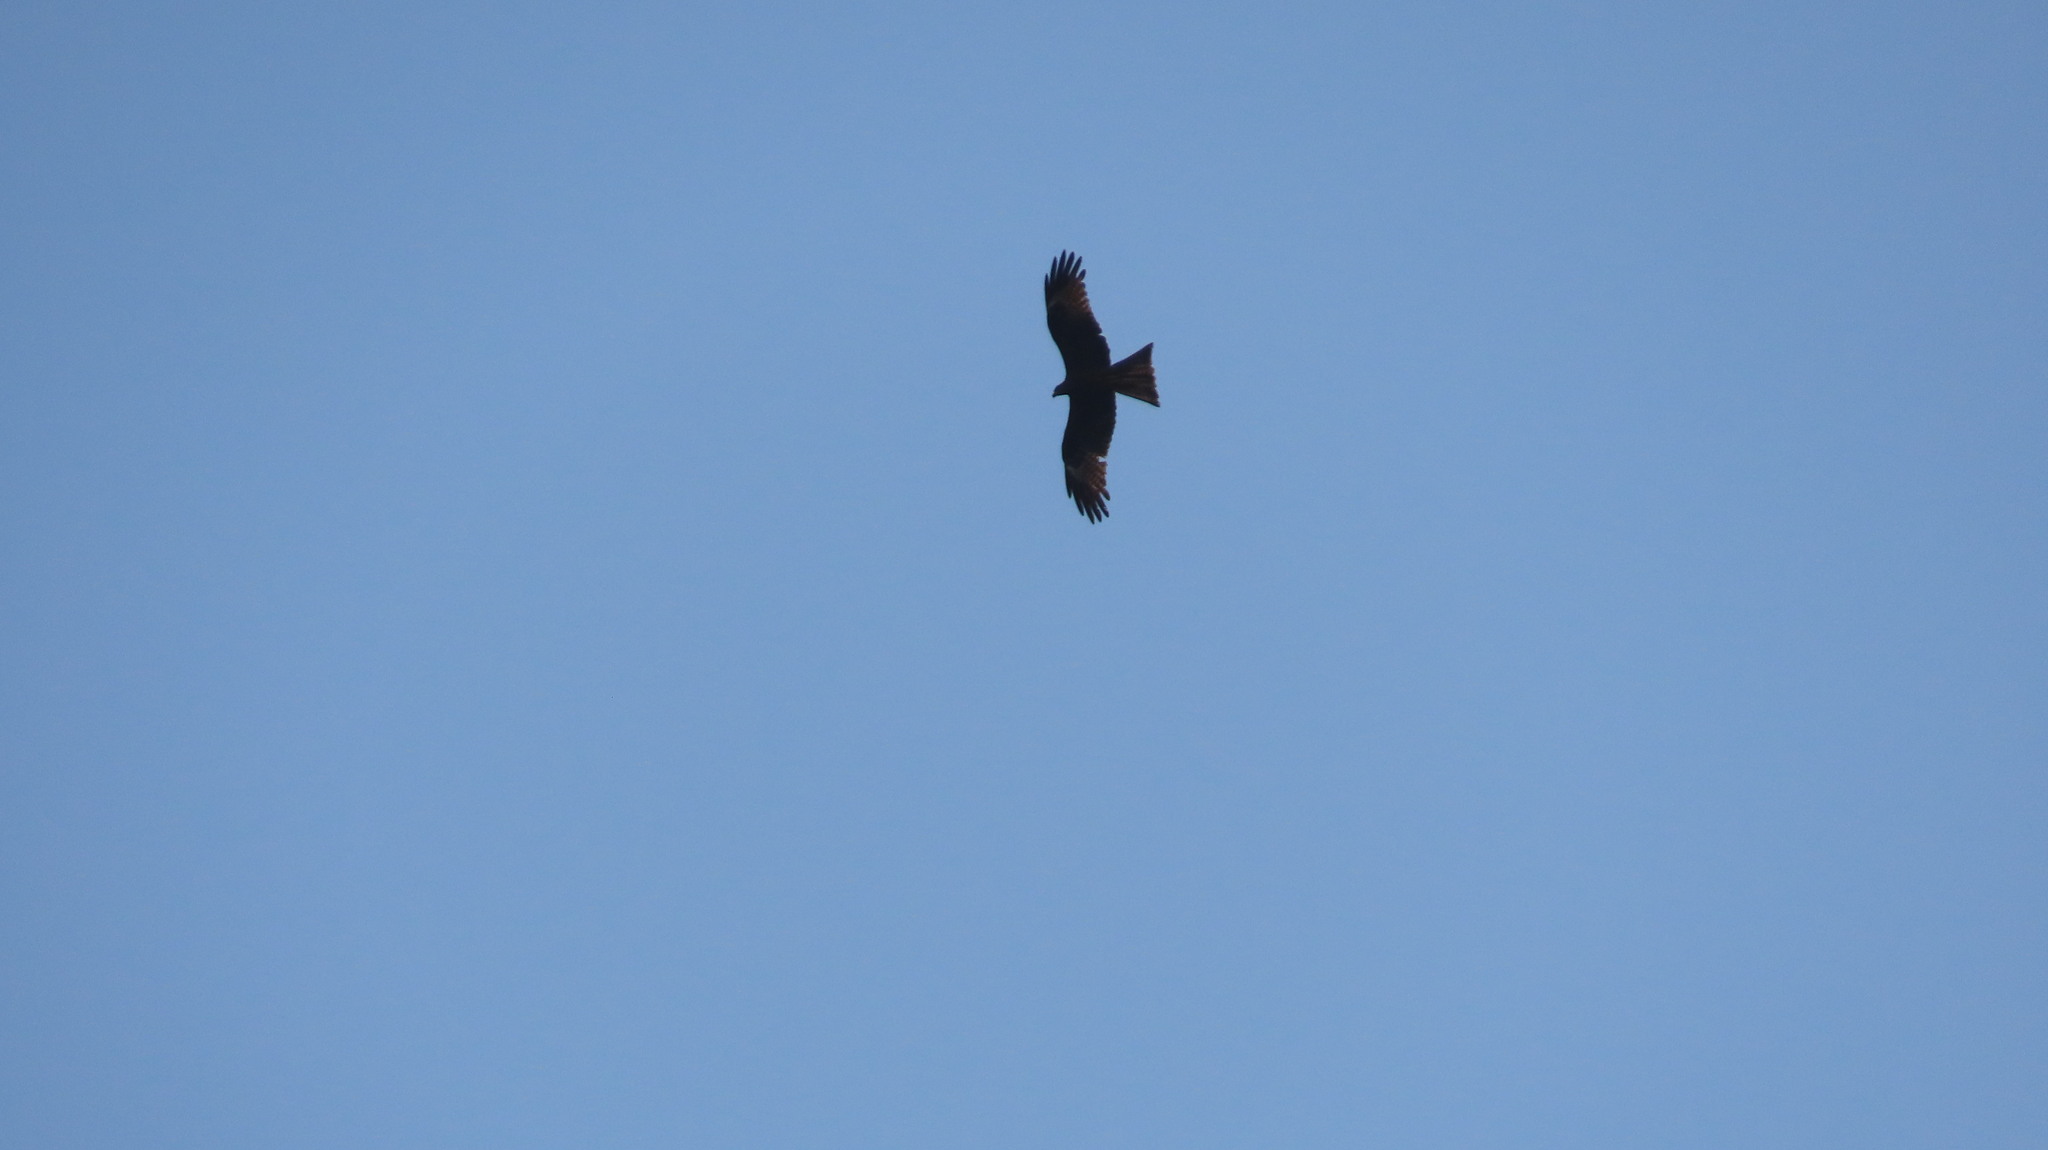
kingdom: Animalia
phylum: Chordata
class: Aves
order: Accipitriformes
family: Accipitridae
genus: Milvus
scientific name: Milvus migrans
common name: Black kite
